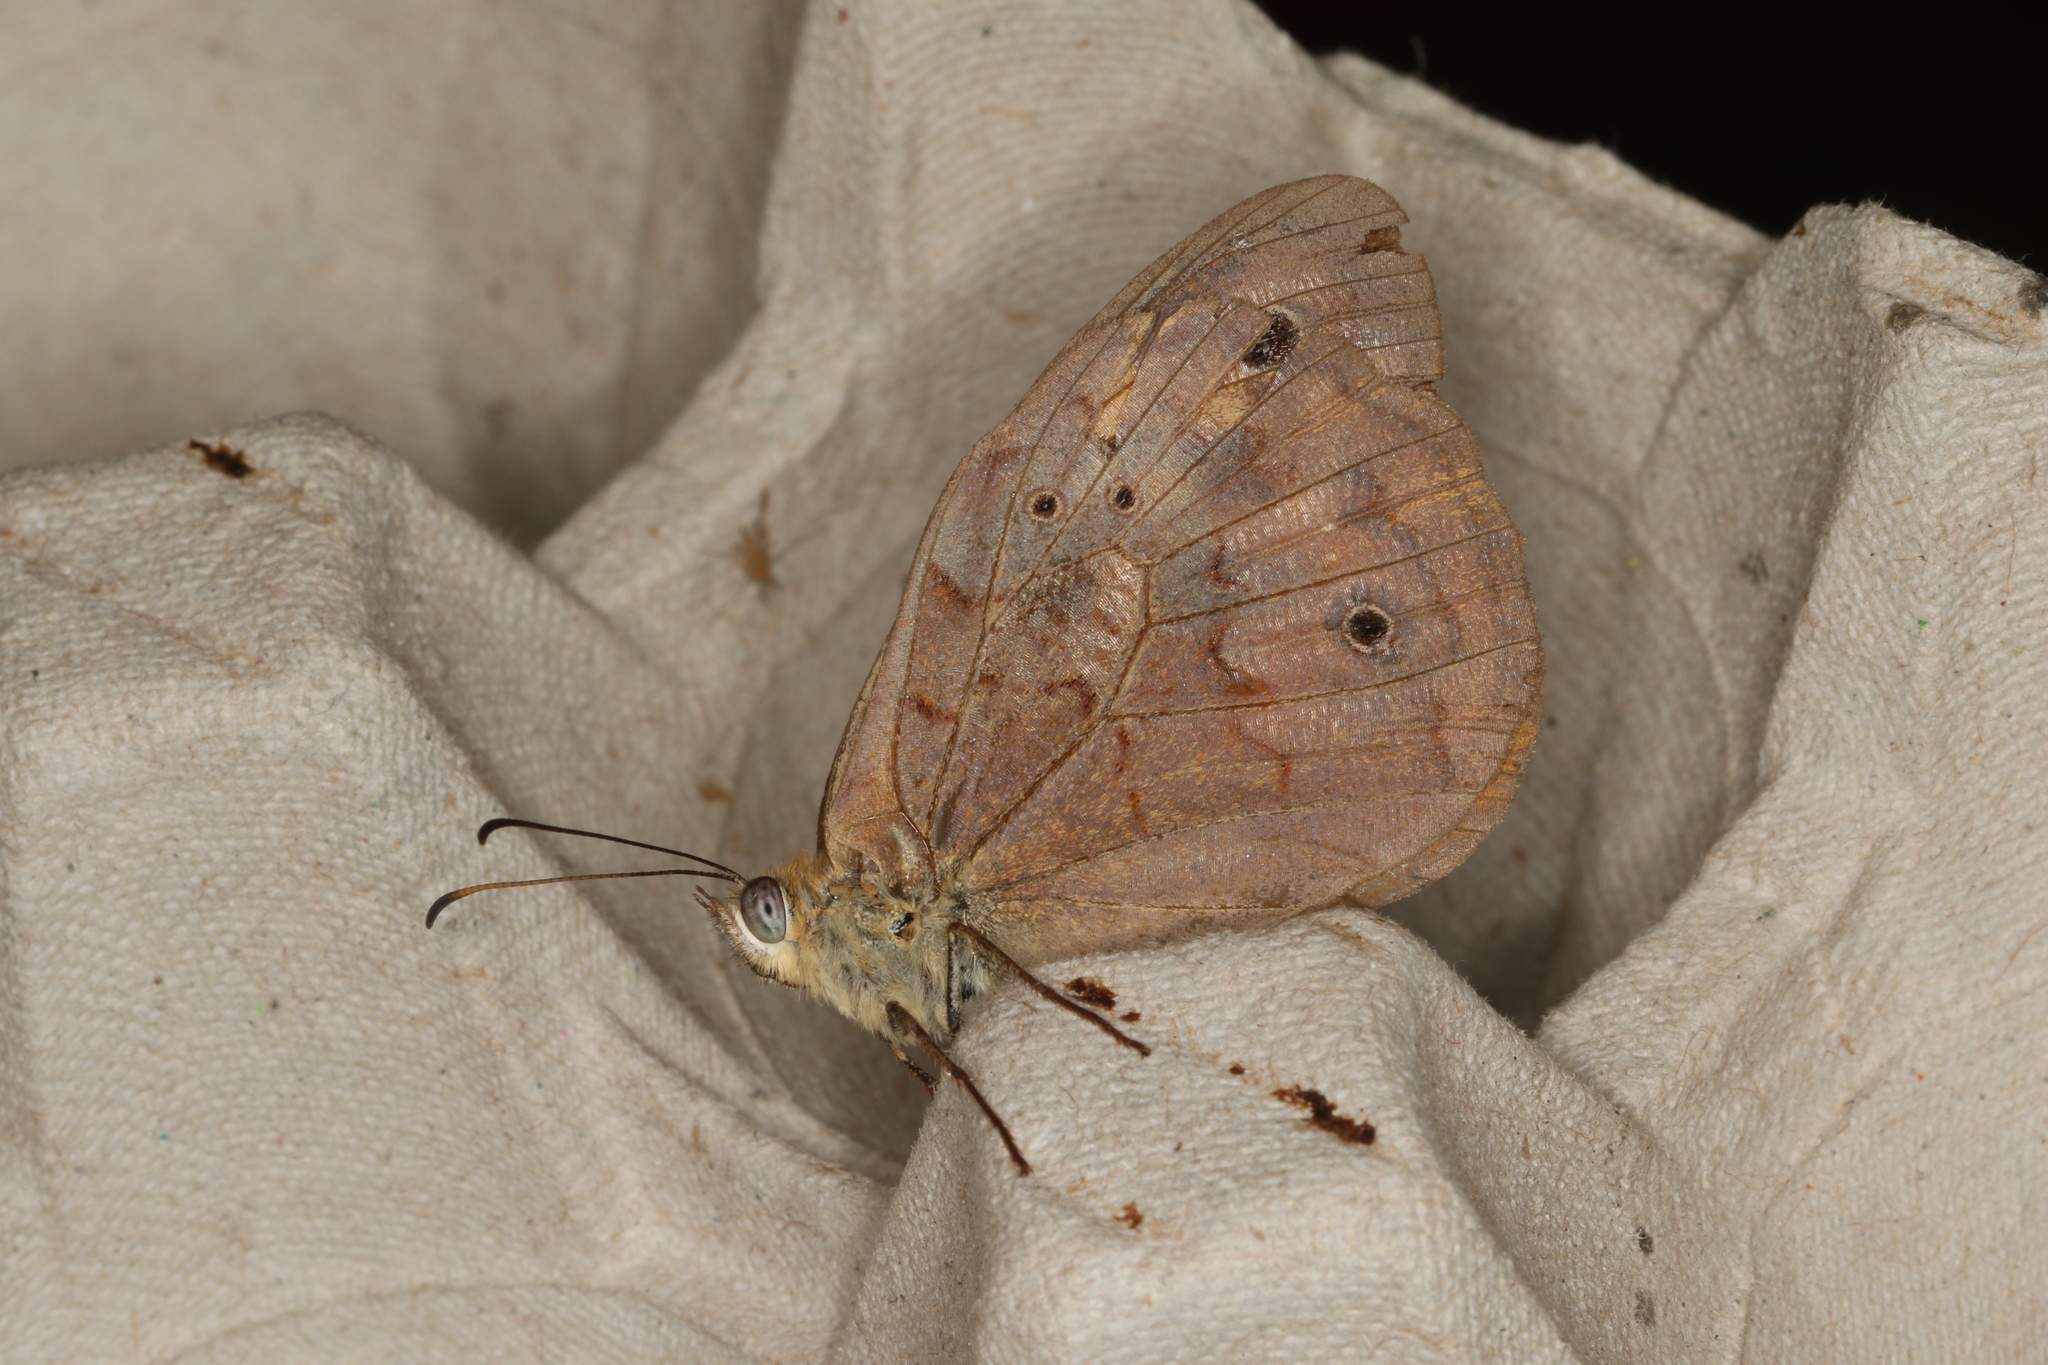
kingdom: Animalia
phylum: Arthropoda
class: Insecta
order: Lepidoptera
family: Nymphalidae
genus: Heteronympha
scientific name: Heteronympha merope
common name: Common brown
